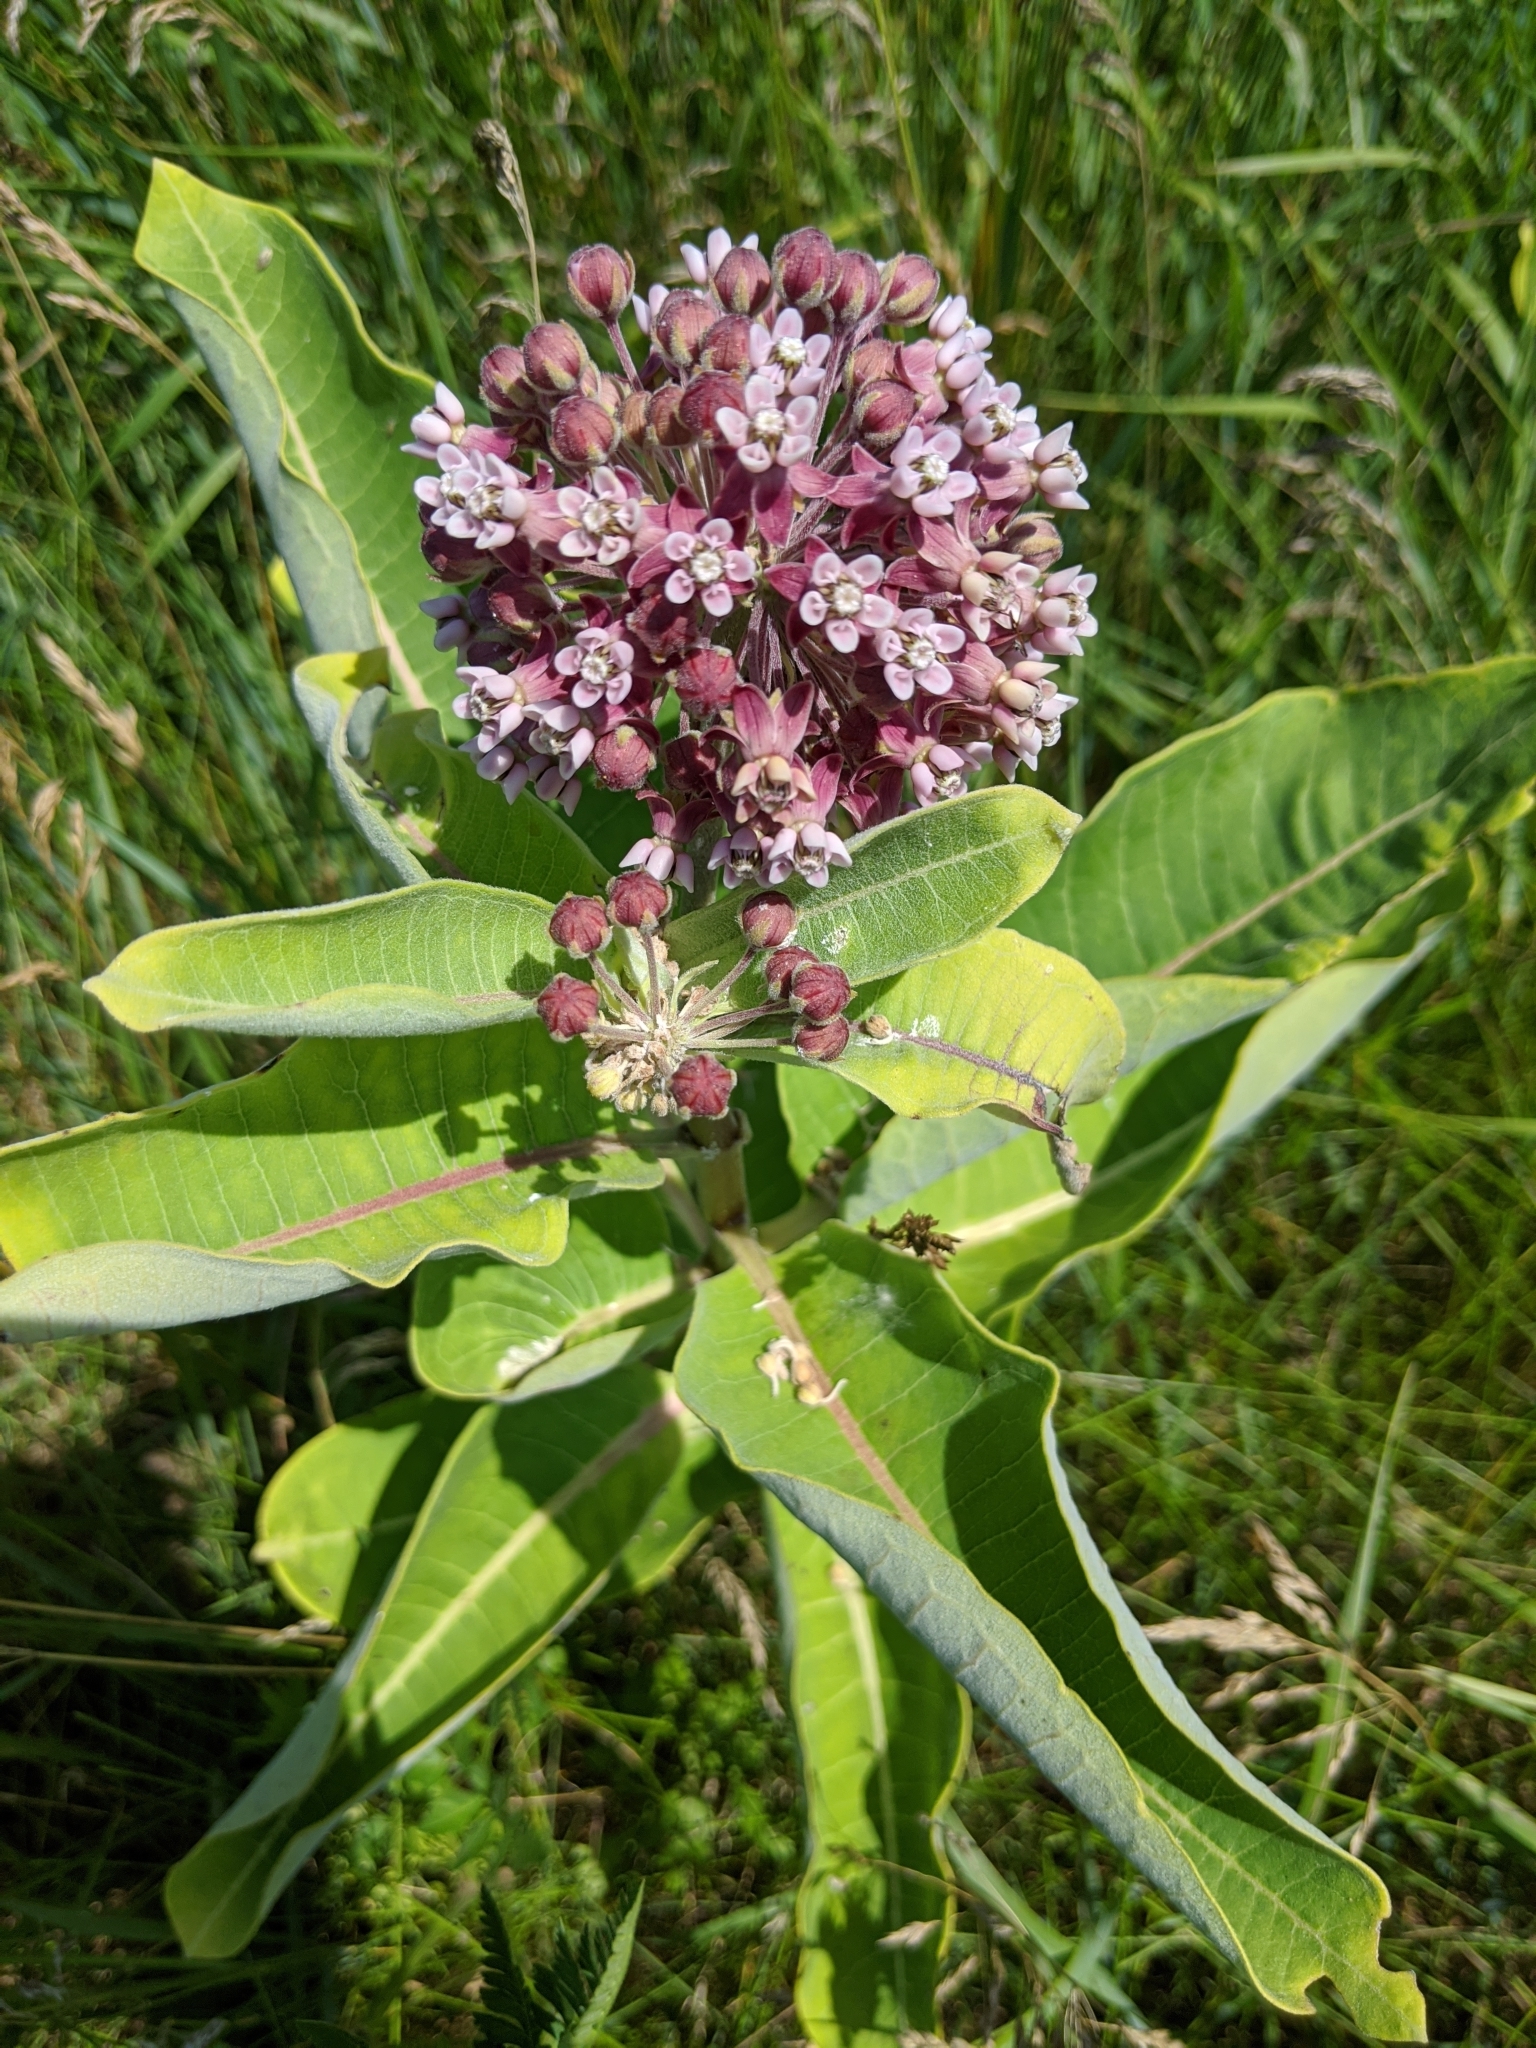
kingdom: Plantae
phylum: Tracheophyta
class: Magnoliopsida
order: Gentianales
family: Apocynaceae
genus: Asclepias
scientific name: Asclepias syriaca
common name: Common milkweed
